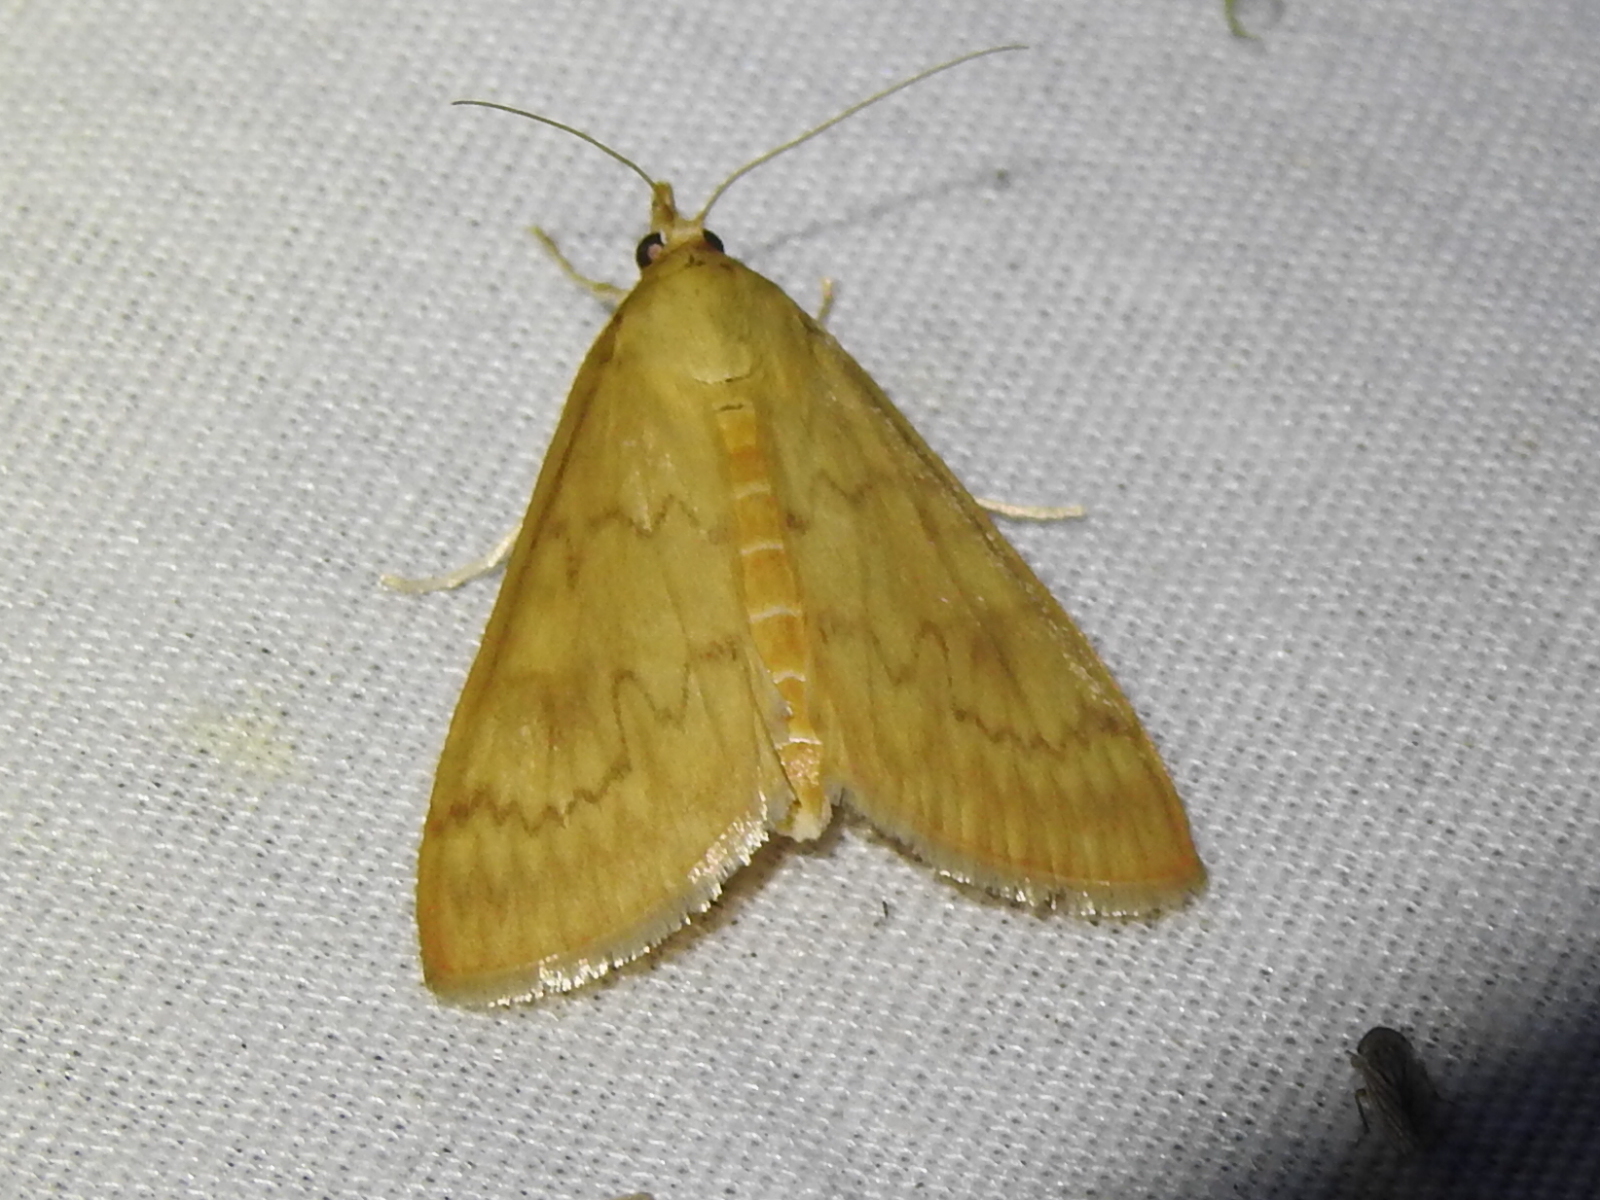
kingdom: Animalia
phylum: Arthropoda
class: Insecta
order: Lepidoptera
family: Crambidae
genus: Ostrinia
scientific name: Ostrinia penitalis
